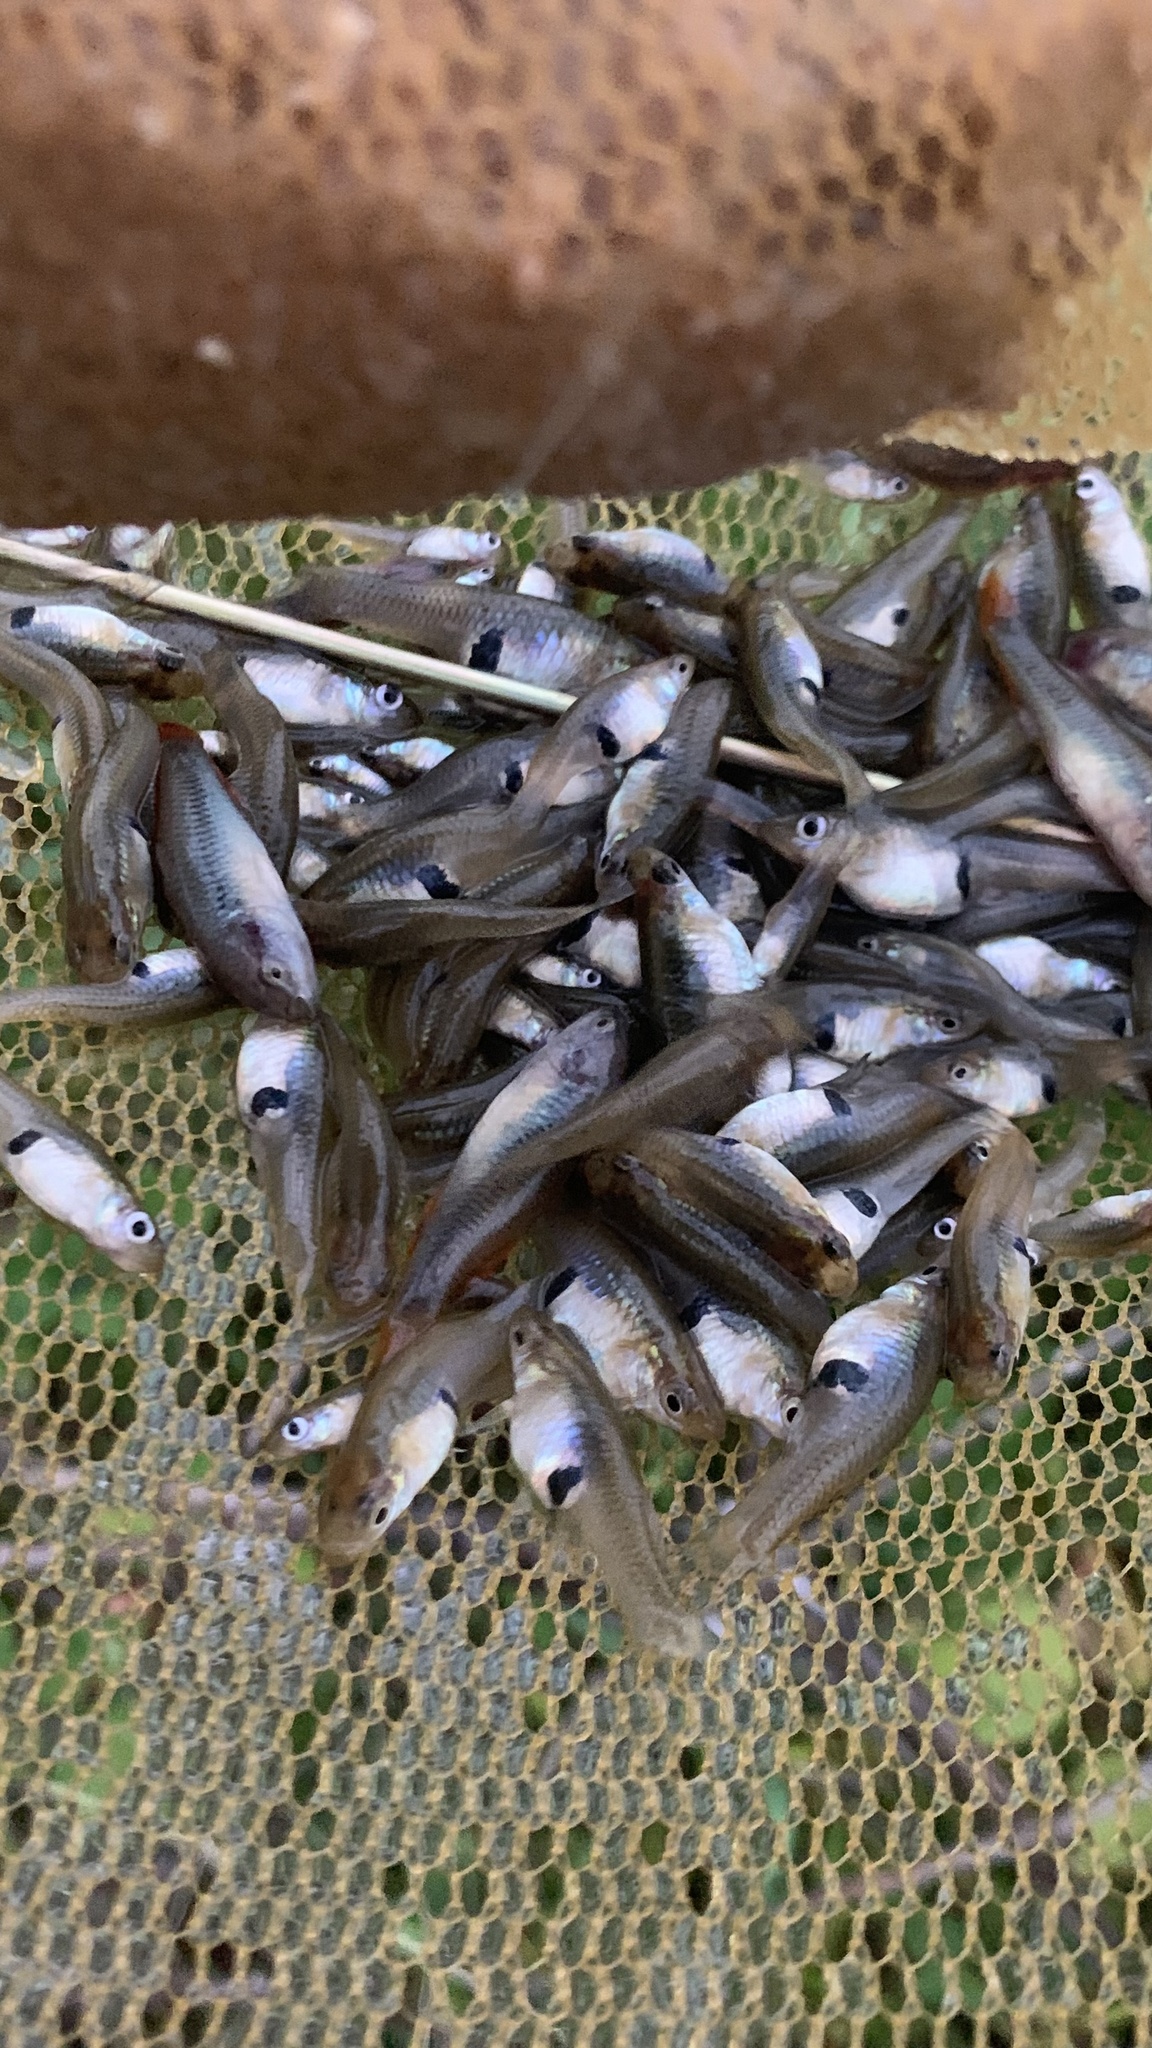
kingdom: Animalia
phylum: Chordata
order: Cyprinodontiformes
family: Poeciliidae
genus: Gambusia
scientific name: Gambusia holbrooki
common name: Eastern mosquitofish
